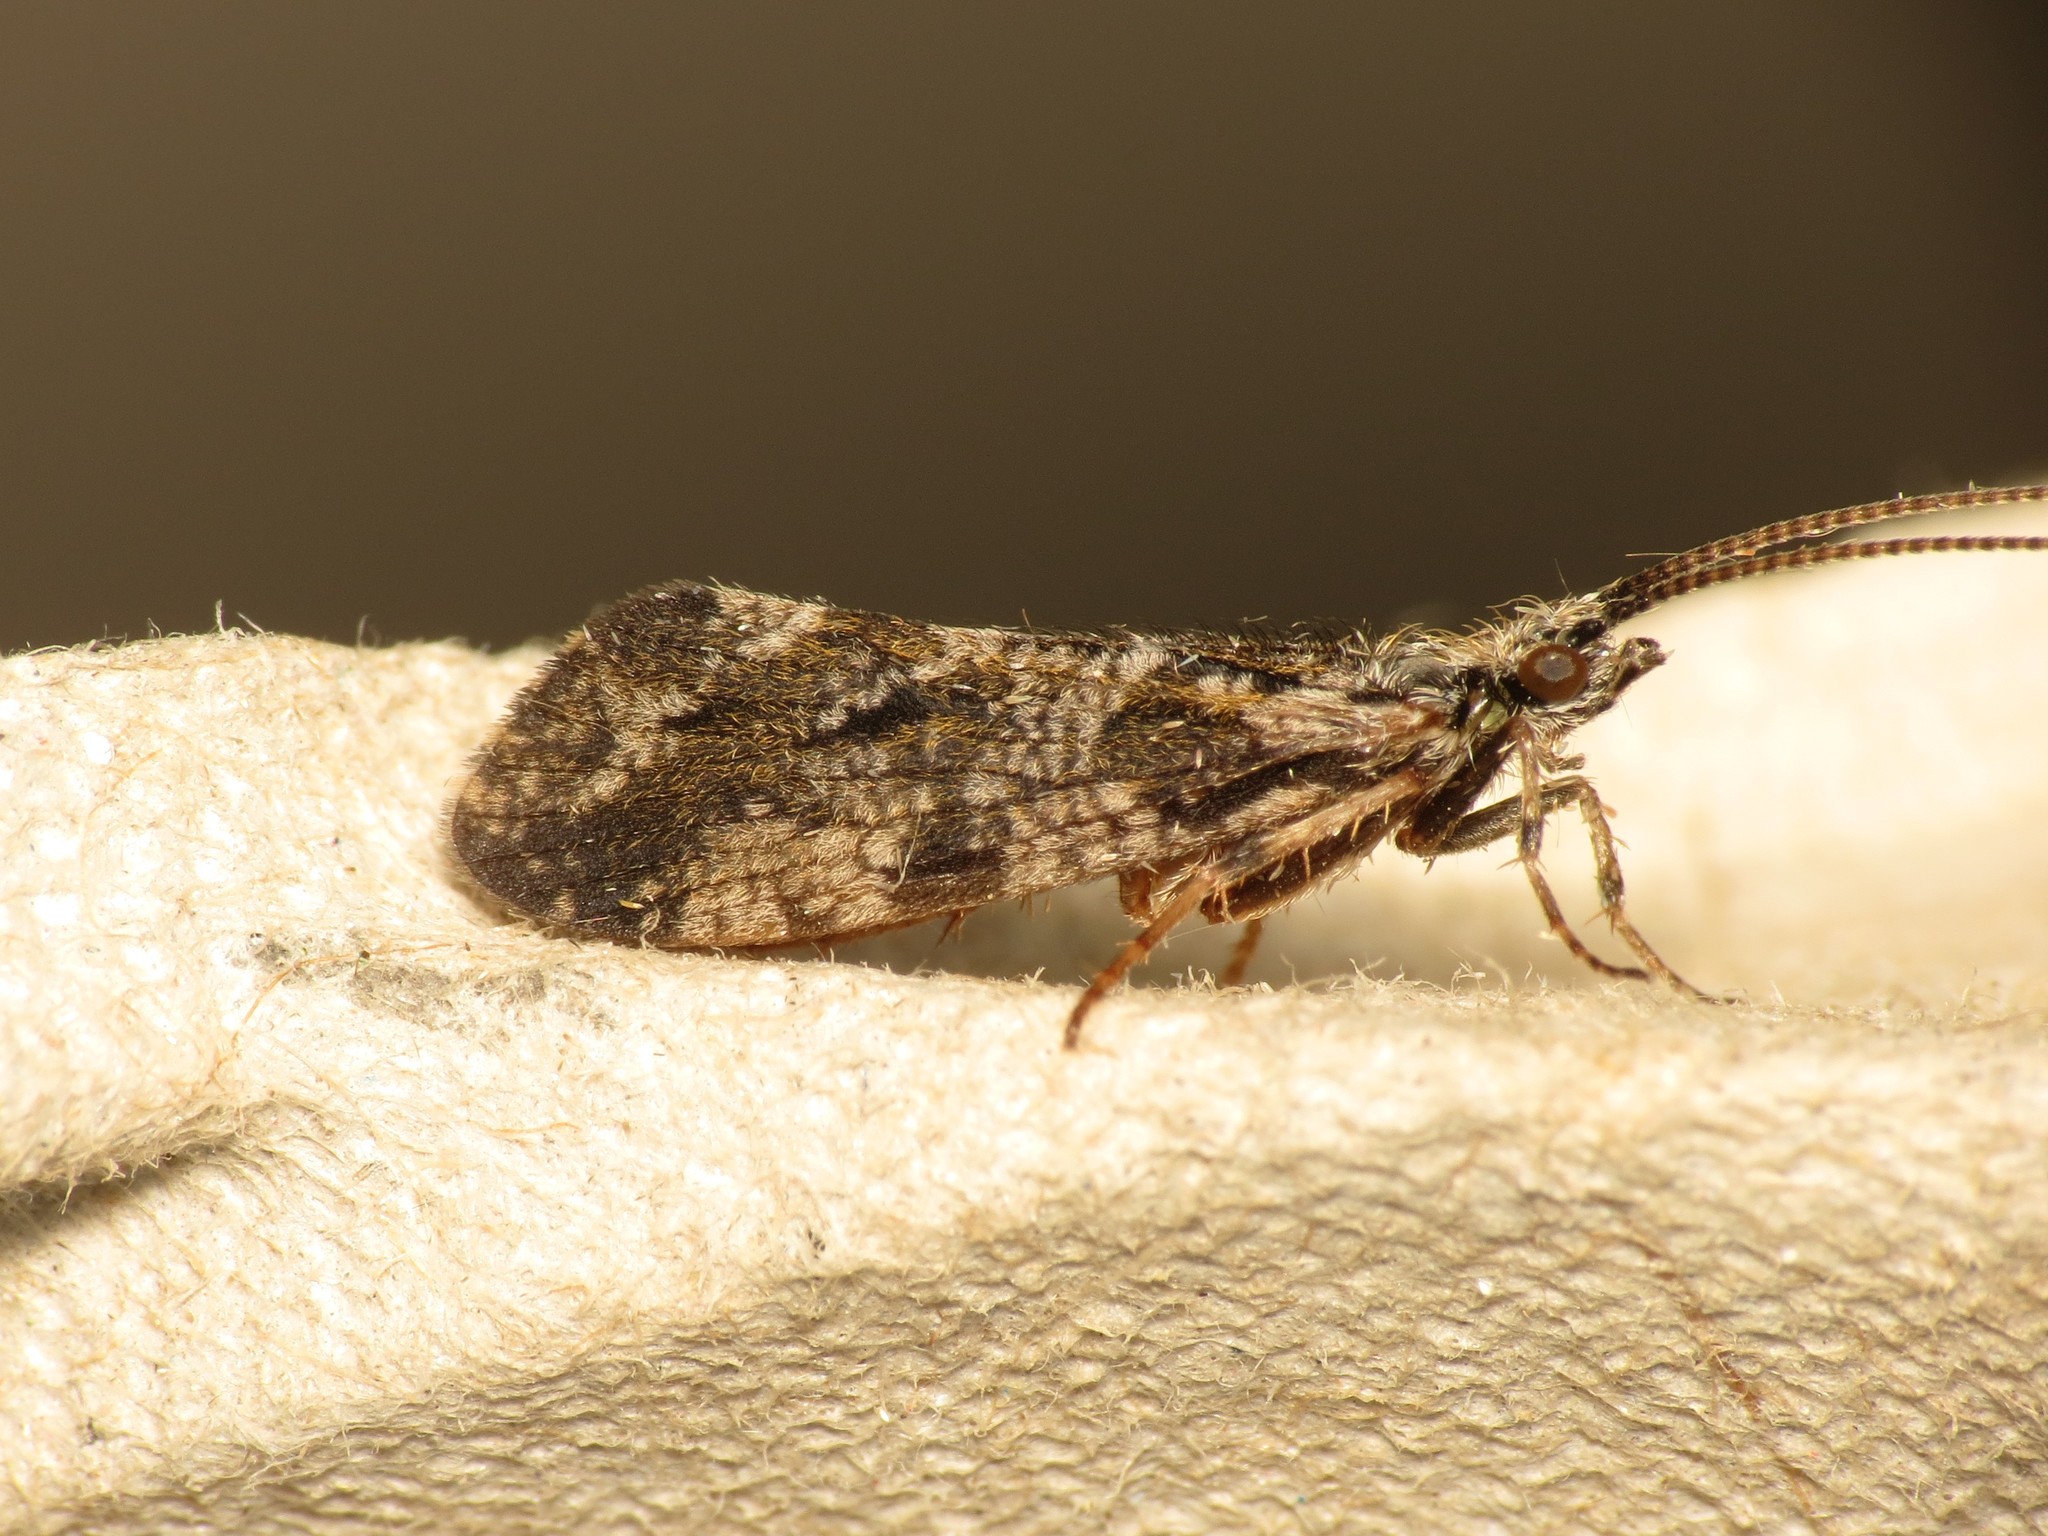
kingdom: Animalia
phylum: Arthropoda
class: Insecta
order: Trichoptera
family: Phryganeidae
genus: Trichostegia
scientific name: Trichostegia minor
